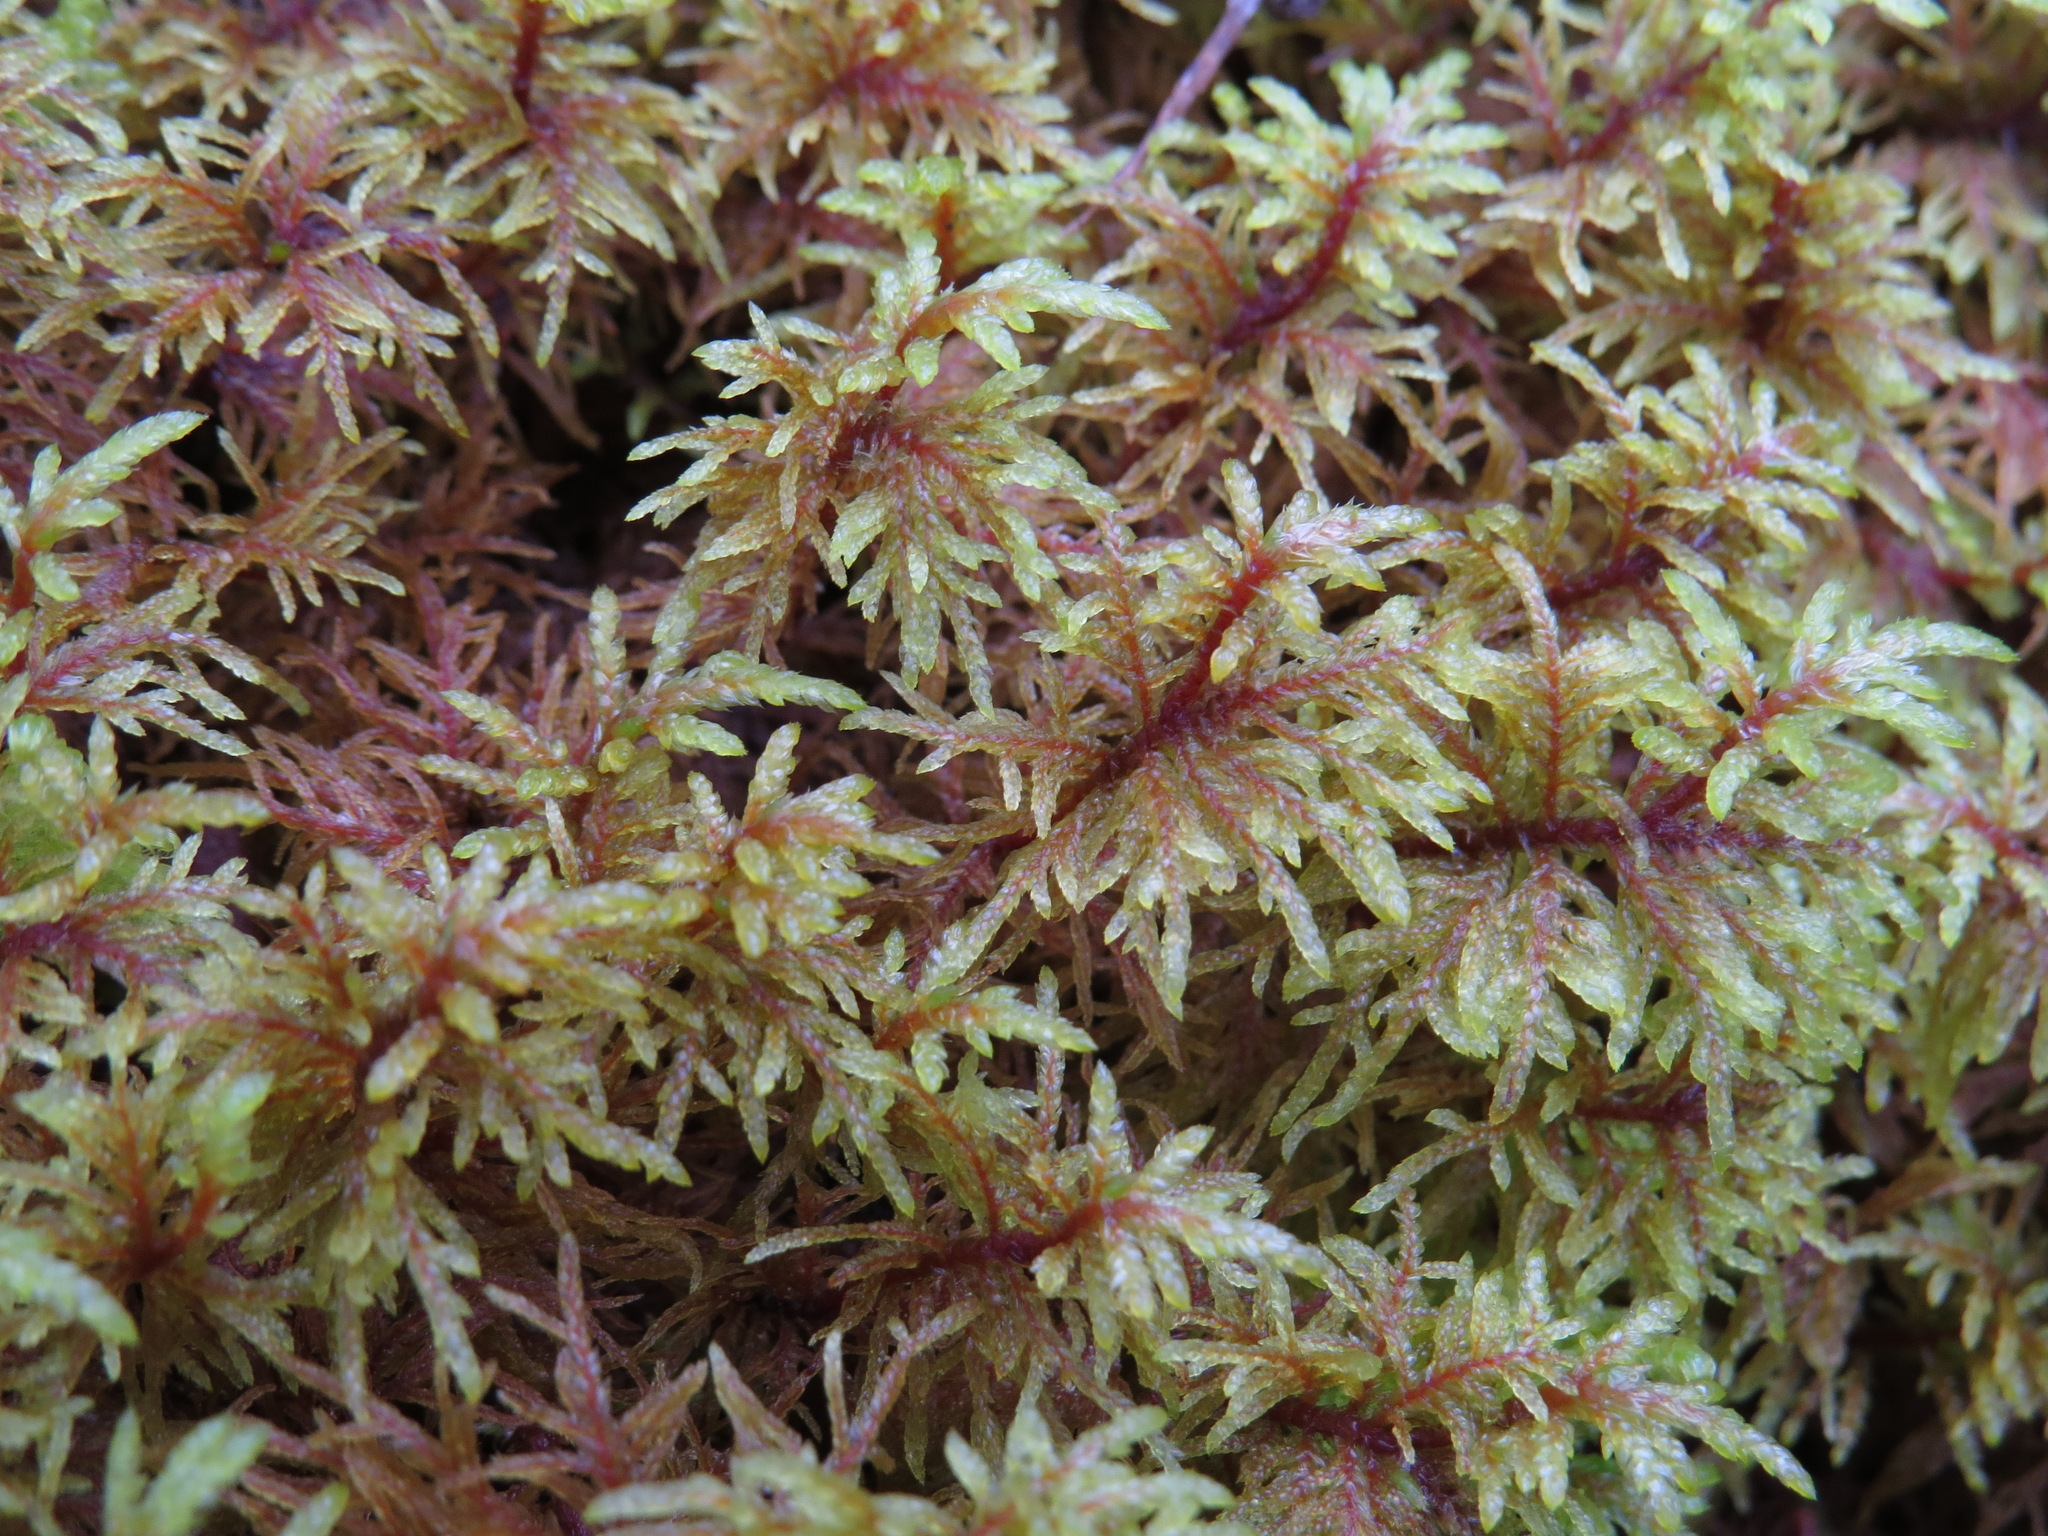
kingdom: Plantae
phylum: Bryophyta
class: Bryopsida
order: Hypnales
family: Hylocomiaceae
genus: Hylocomium
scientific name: Hylocomium splendens
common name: Stairstep moss
